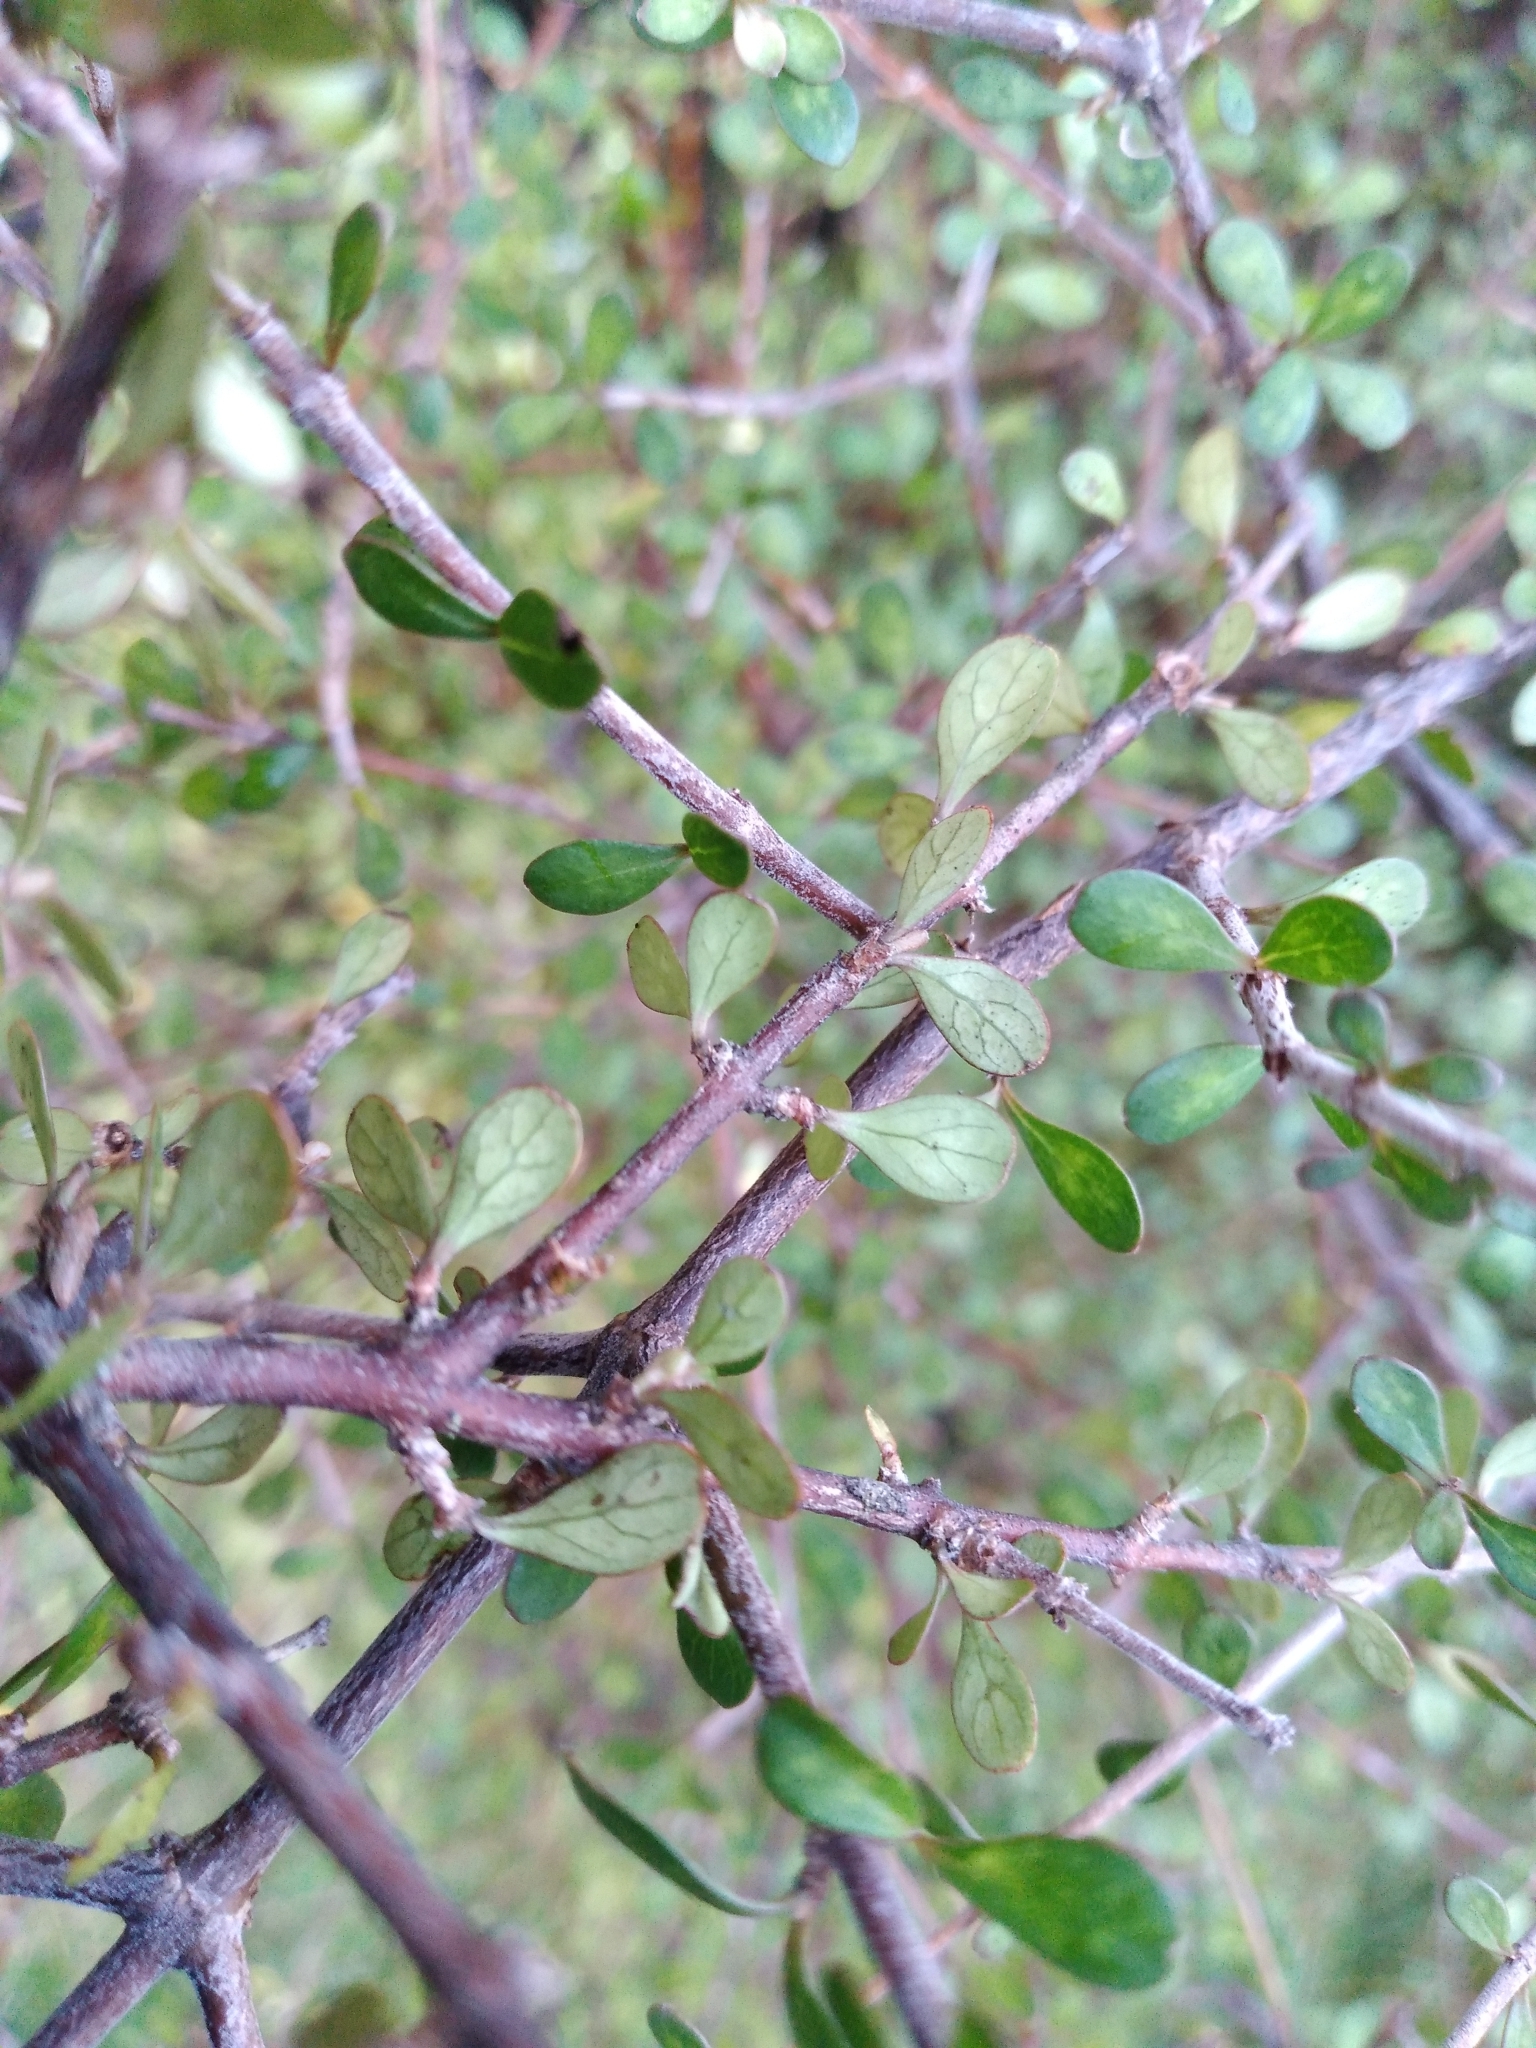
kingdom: Plantae
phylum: Tracheophyta
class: Magnoliopsida
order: Gentianales
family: Rubiaceae
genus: Coprosma
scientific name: Coprosma rigida
